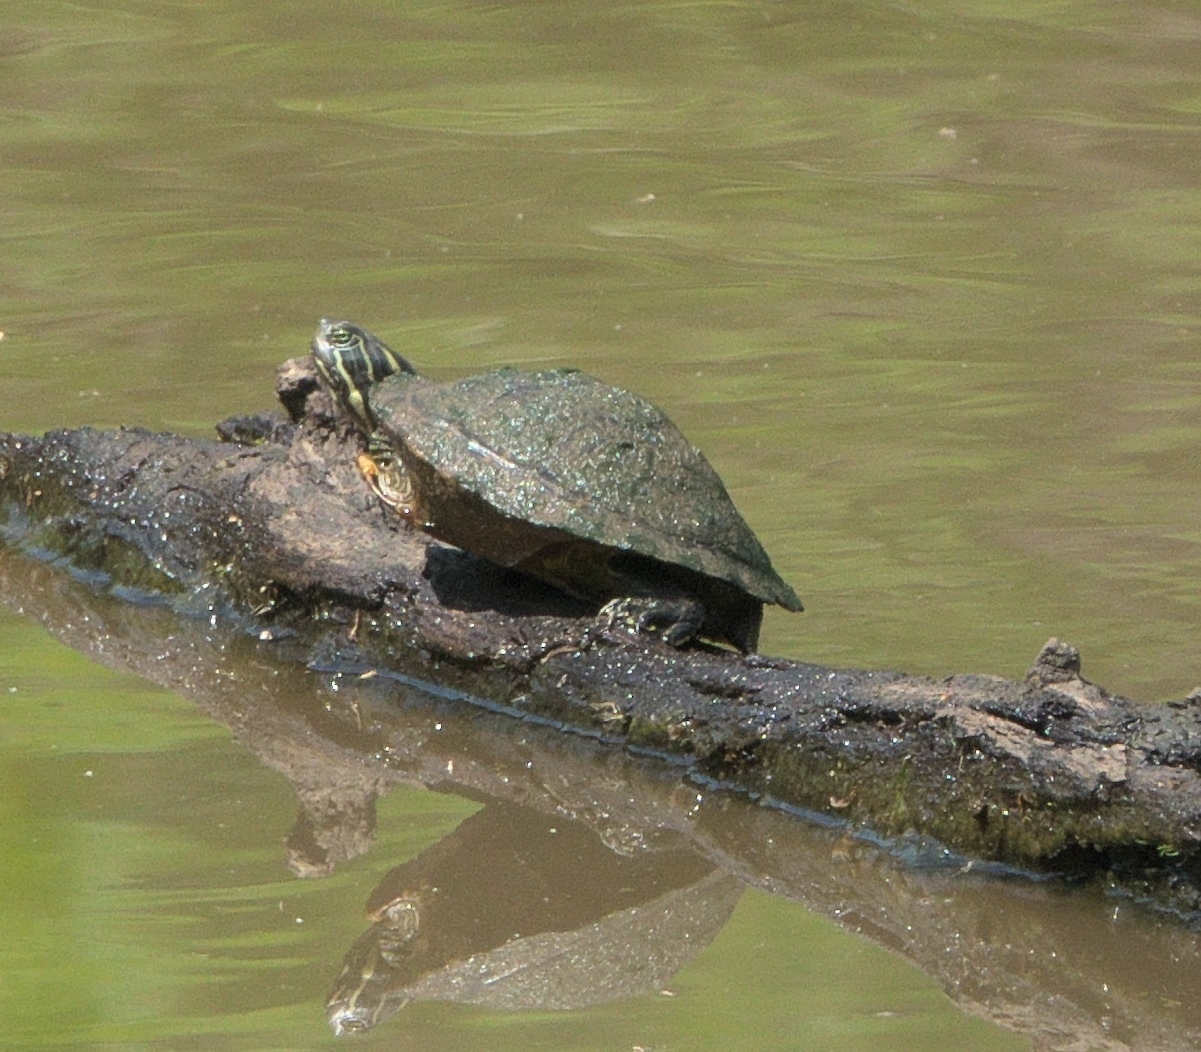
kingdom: Animalia
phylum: Chordata
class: Testudines
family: Emydidae
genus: Pseudemys
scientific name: Pseudemys concinna
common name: Eastern river cooter
